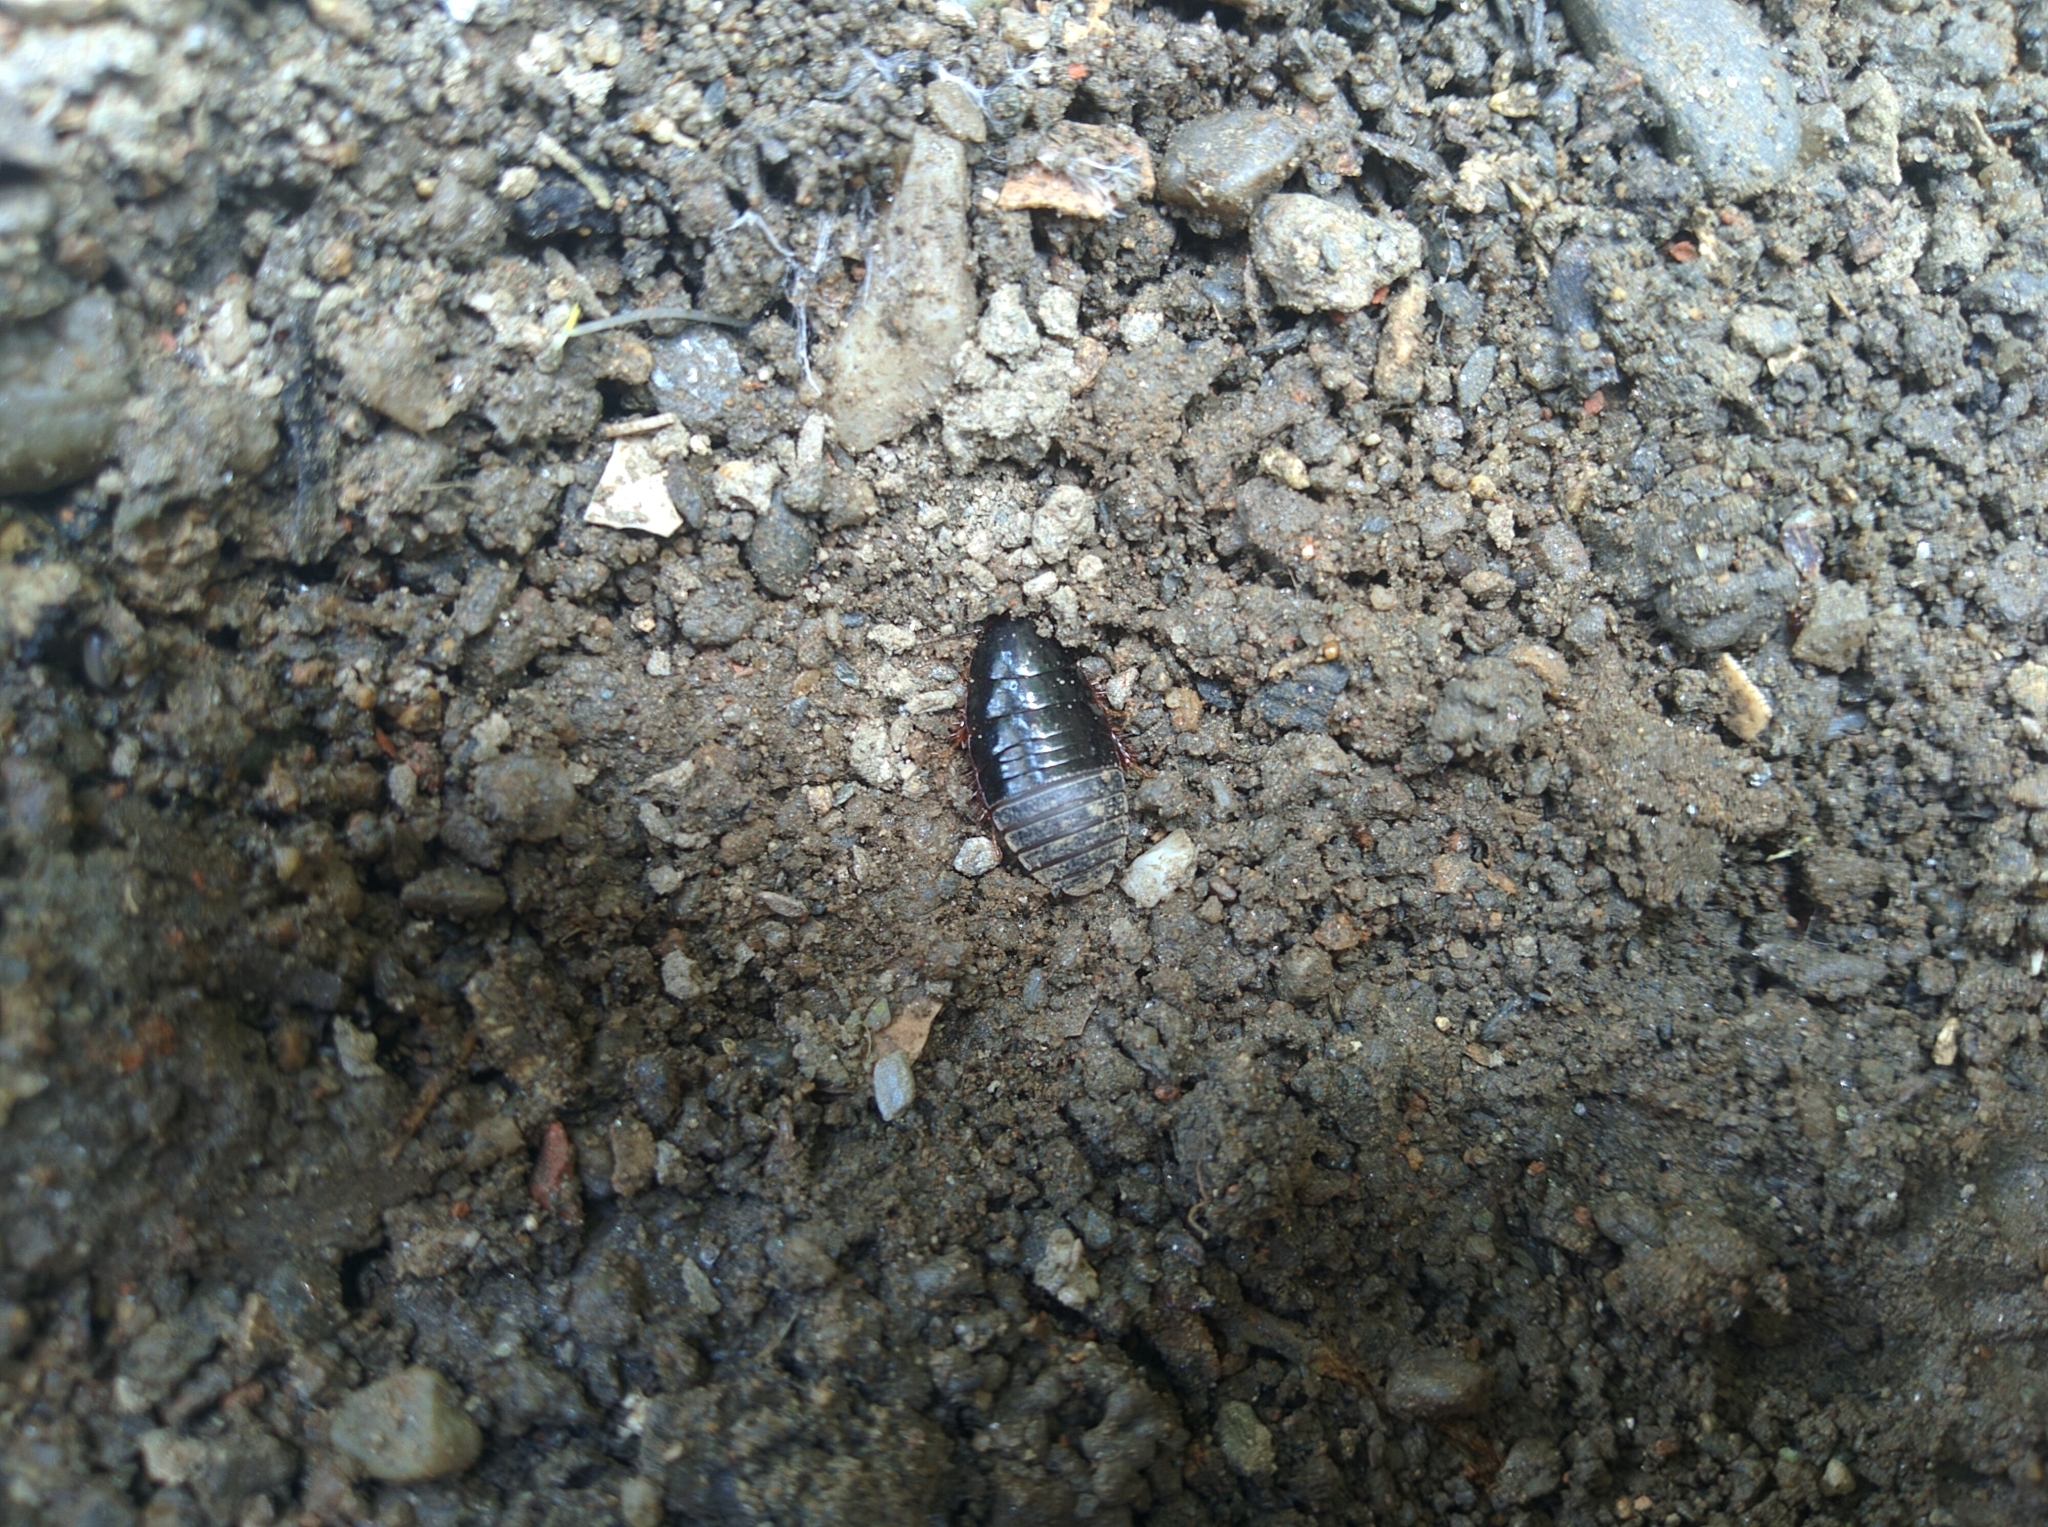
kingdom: Animalia
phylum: Arthropoda
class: Insecta
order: Blattodea
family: Blaberidae
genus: Pycnoscelus
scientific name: Pycnoscelus surinamensis
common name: Surinam cockroach
